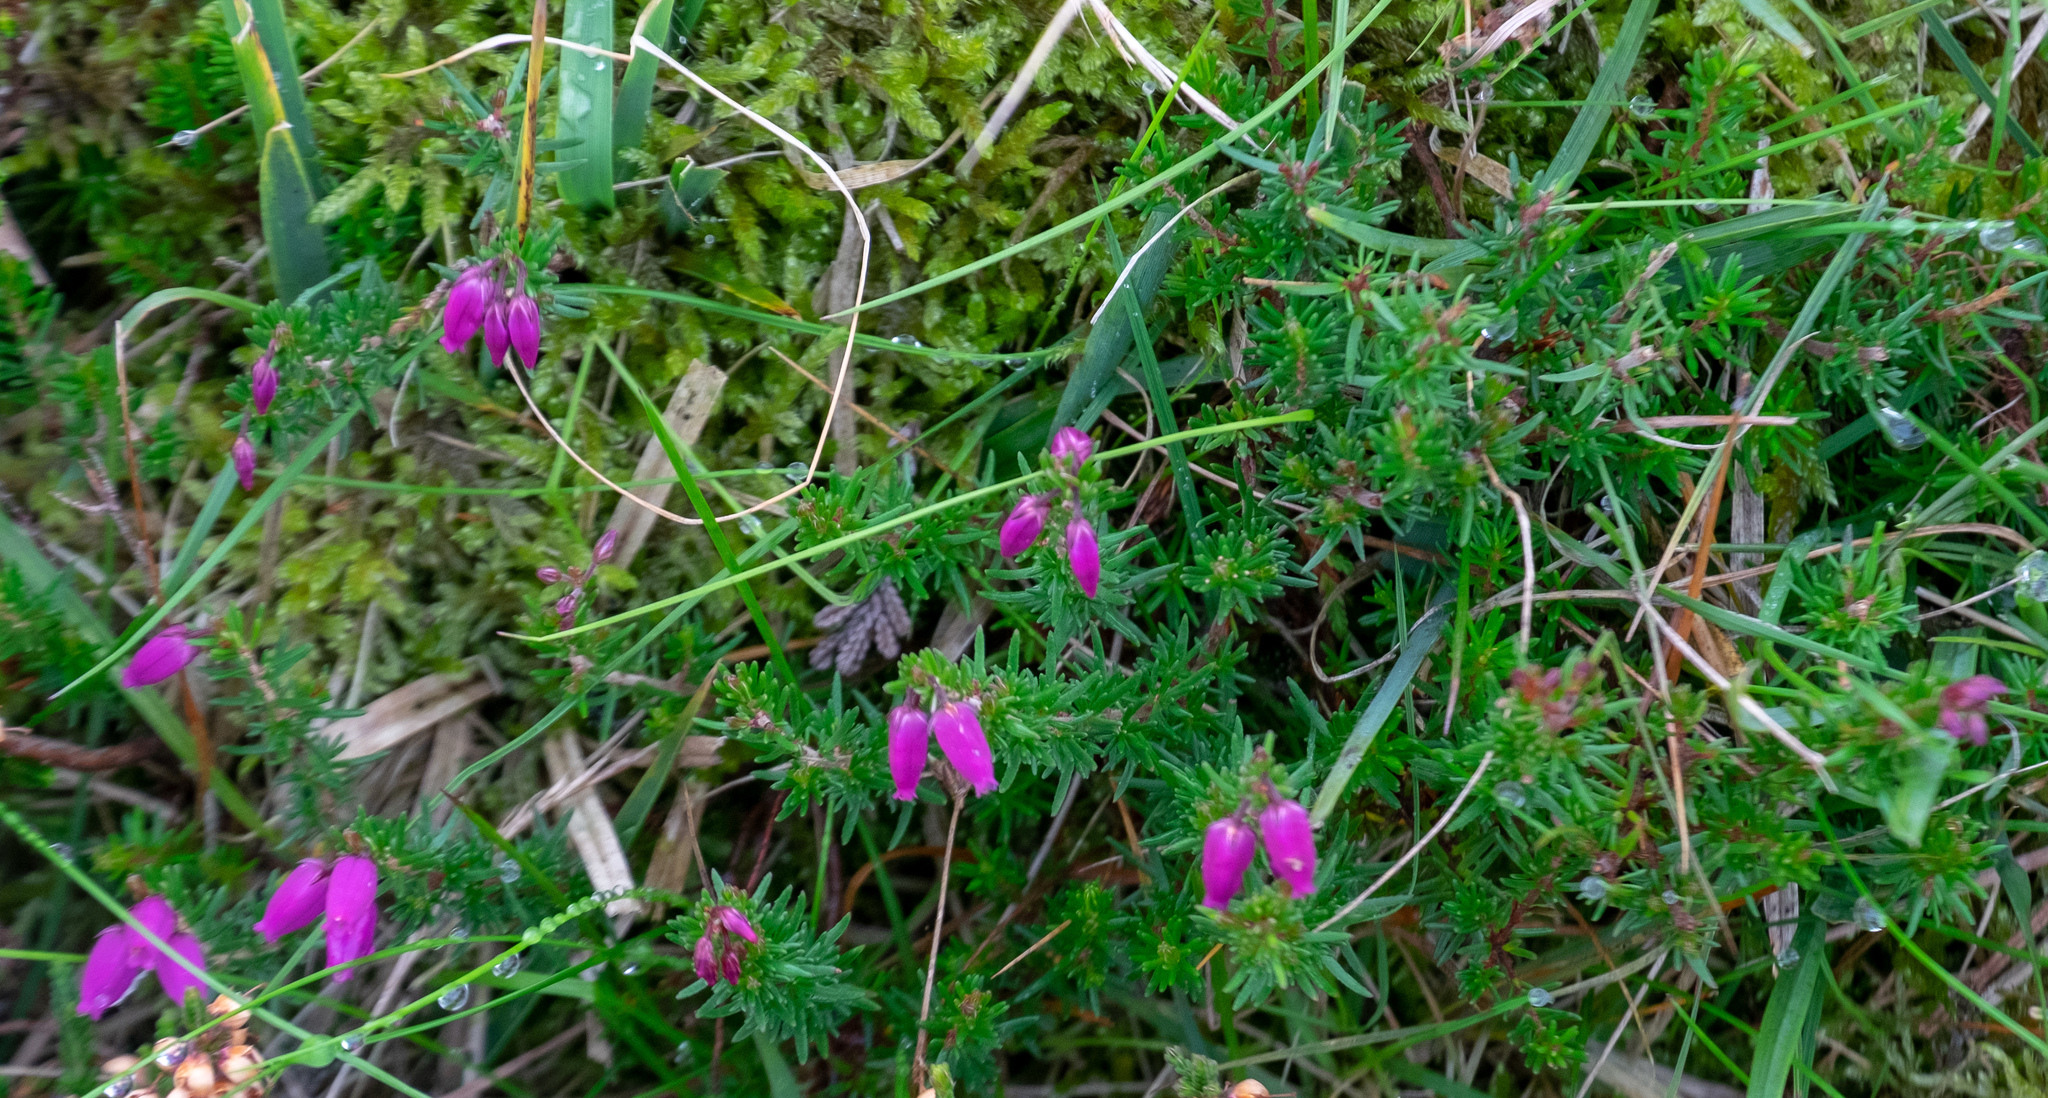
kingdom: Plantae
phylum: Tracheophyta
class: Magnoliopsida
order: Ericales
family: Ericaceae
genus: Erica
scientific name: Erica cinerea
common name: Bell heather
